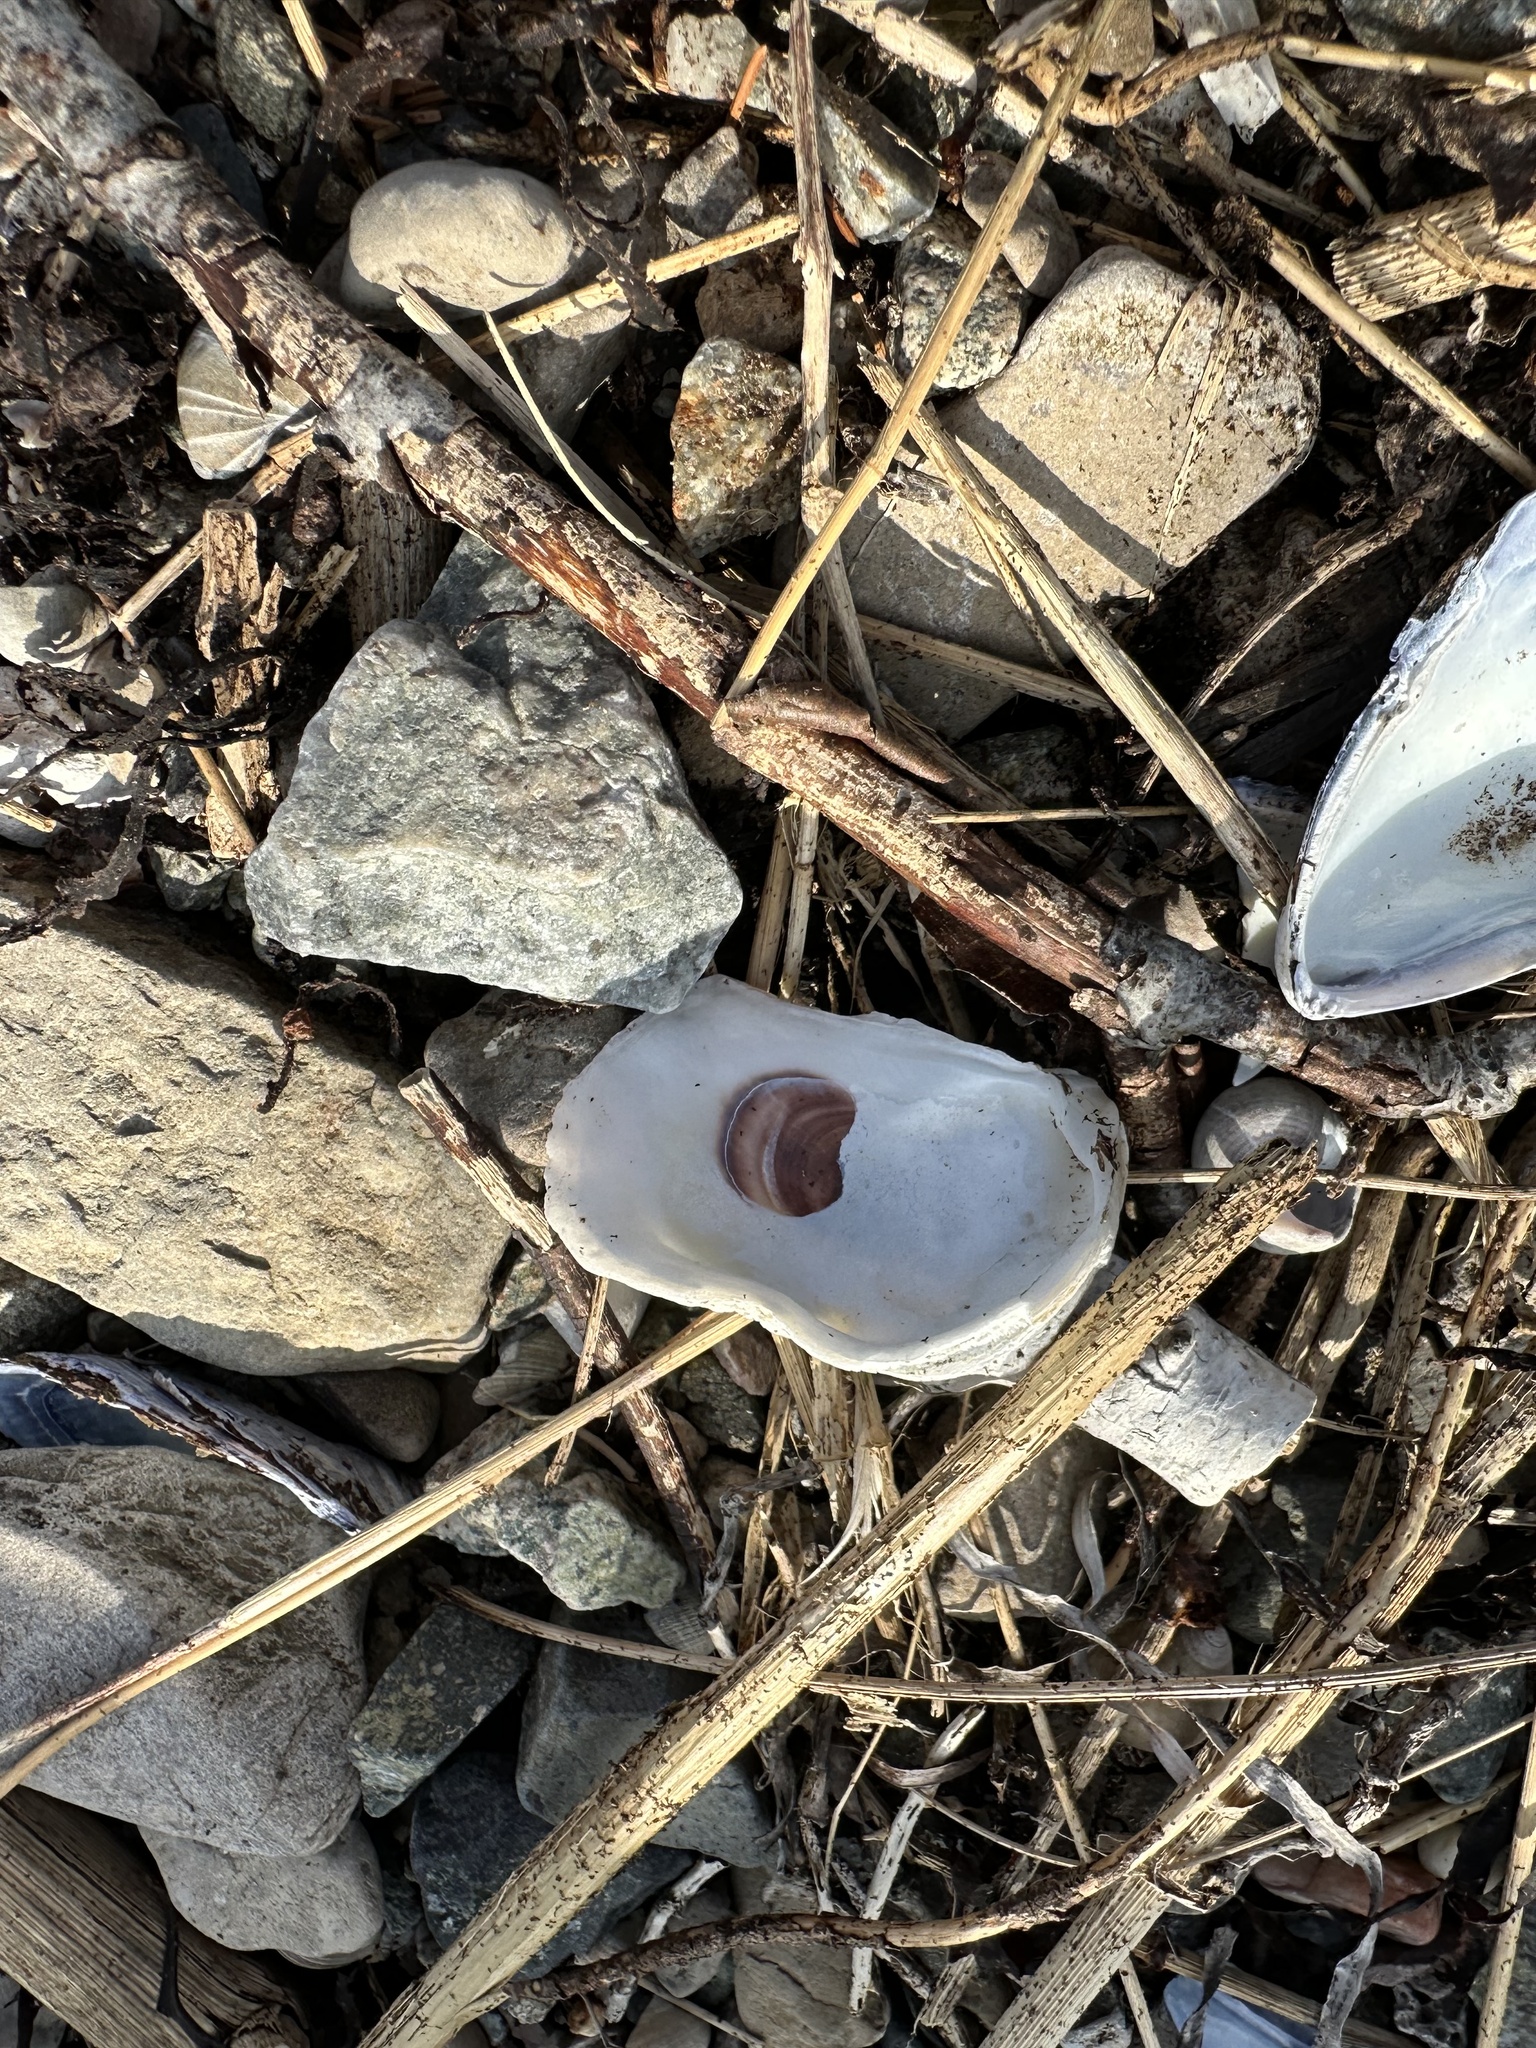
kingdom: Animalia
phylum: Mollusca
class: Bivalvia
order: Ostreida
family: Ostreidae
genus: Crassostrea
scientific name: Crassostrea virginica
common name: American oyster
